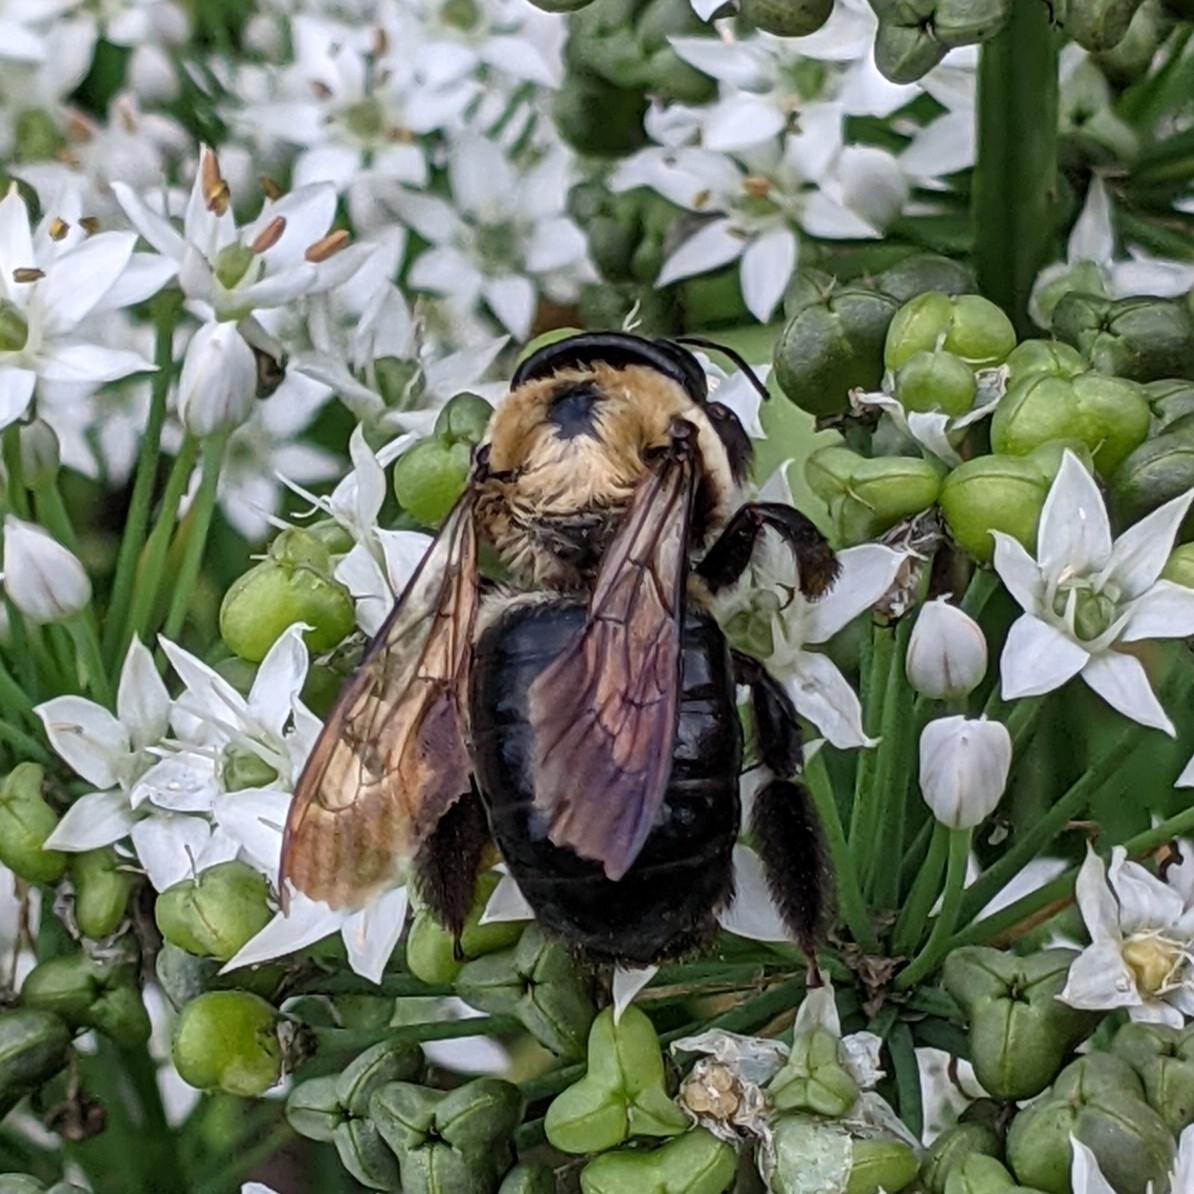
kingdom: Animalia
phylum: Arthropoda
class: Insecta
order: Hymenoptera
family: Apidae
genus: Xylocopa
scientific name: Xylocopa virginica
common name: Carpenter bee
